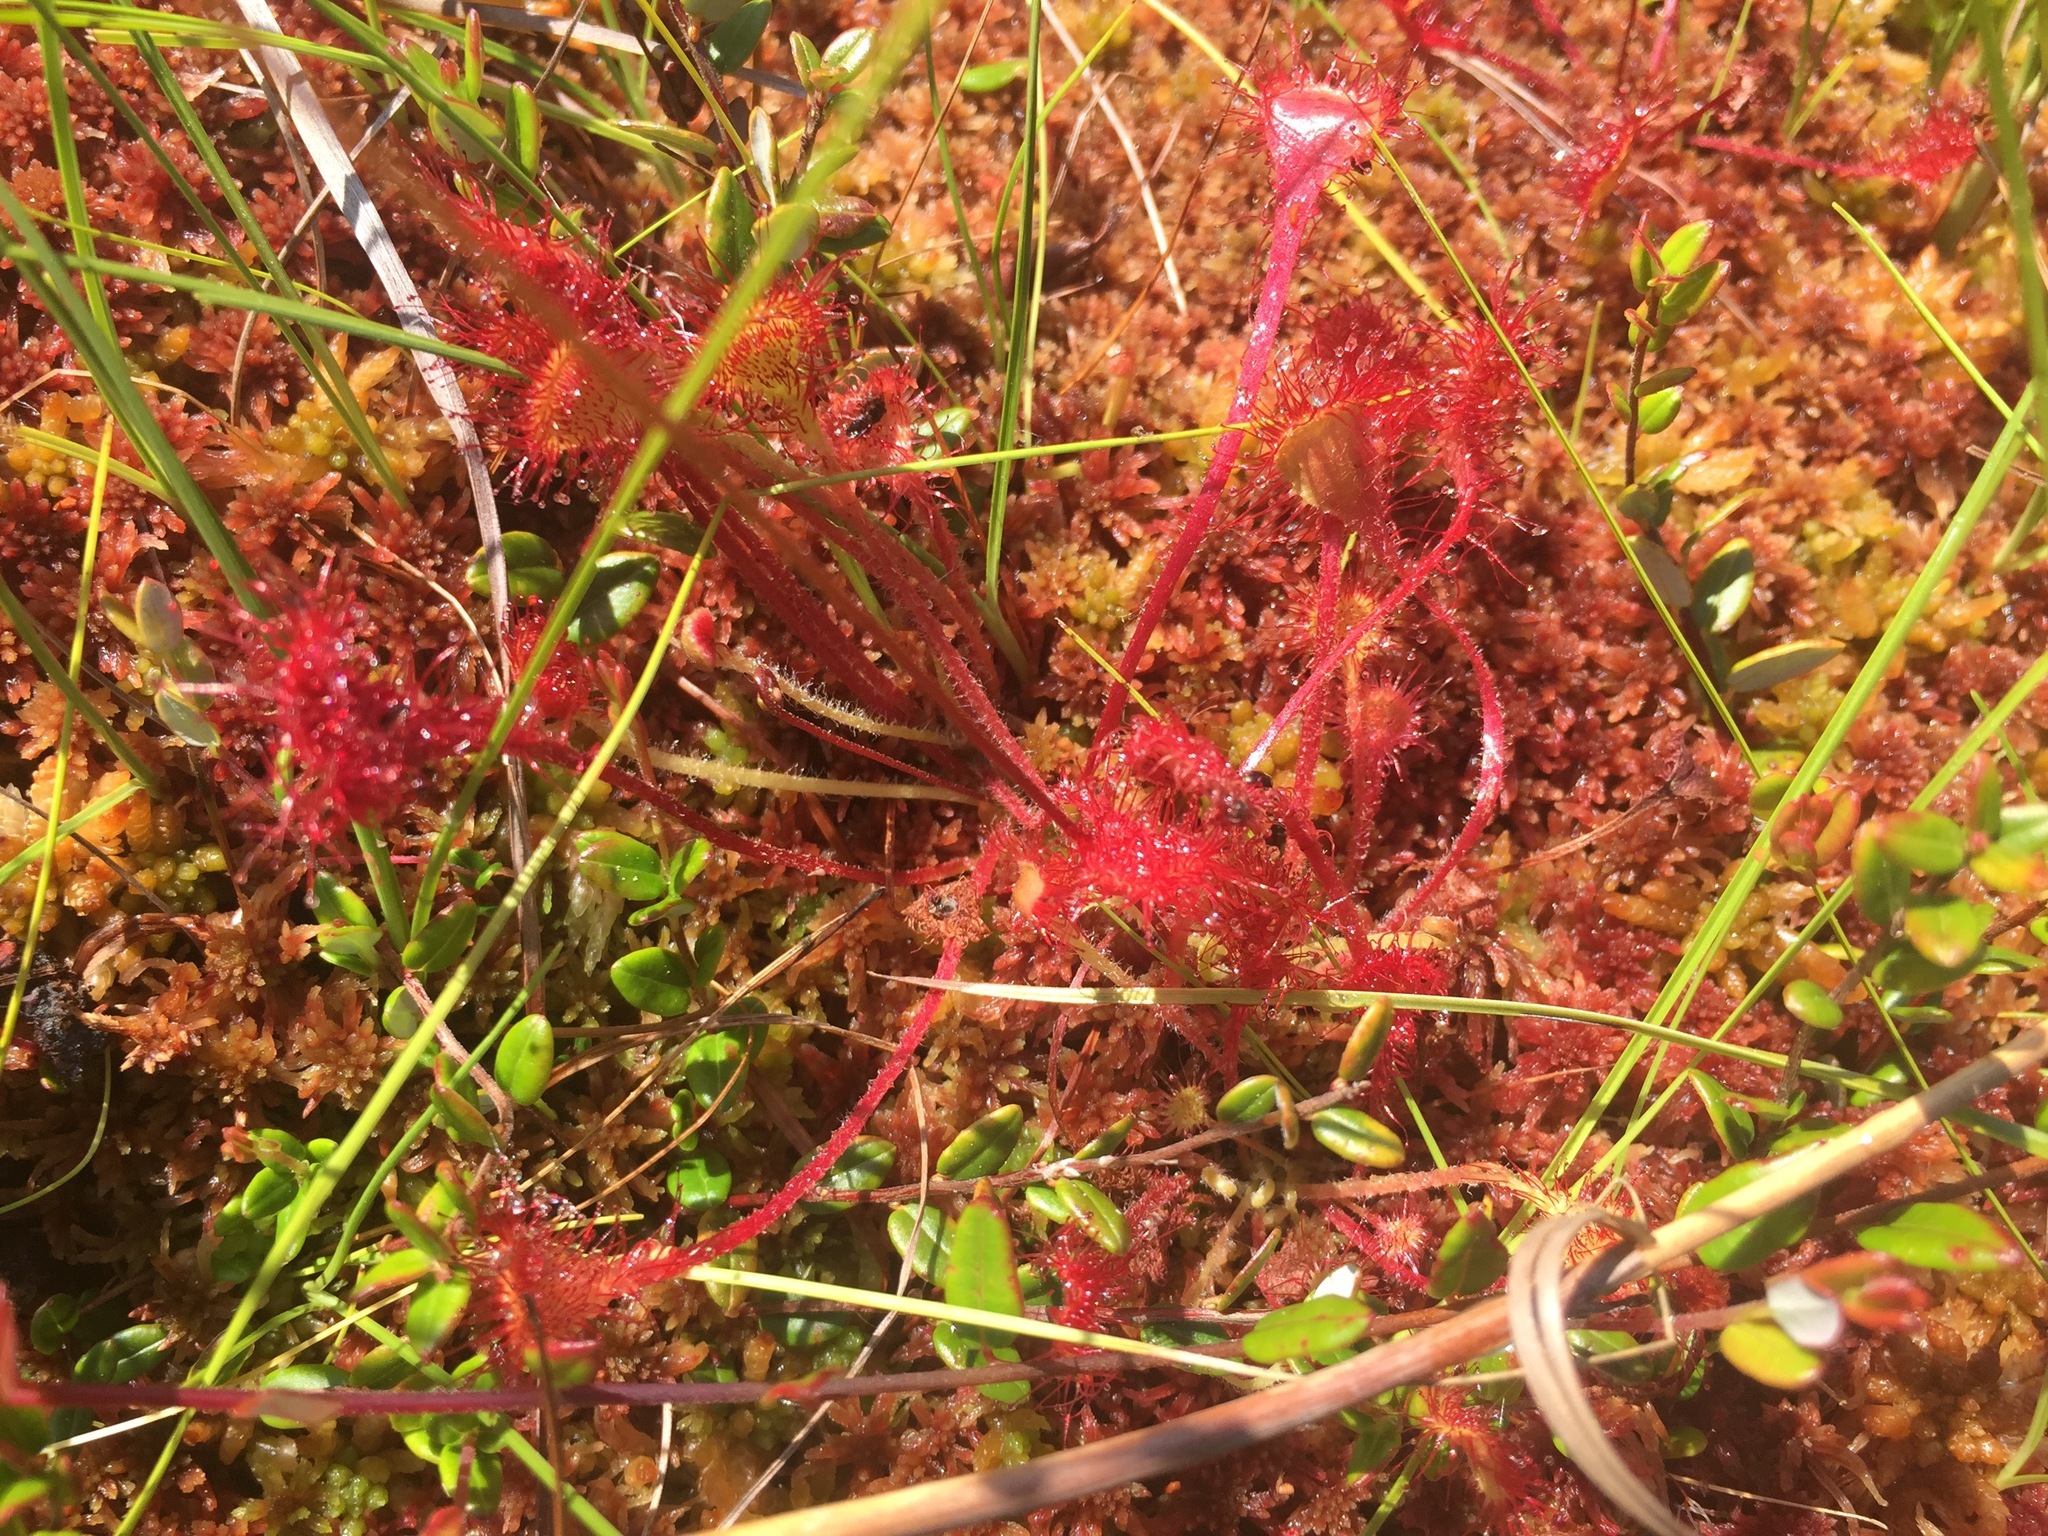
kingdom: Plantae
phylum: Tracheophyta
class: Magnoliopsida
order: Caryophyllales
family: Droseraceae
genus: Drosera
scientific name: Drosera rotundifolia
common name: Round-leaved sundew
